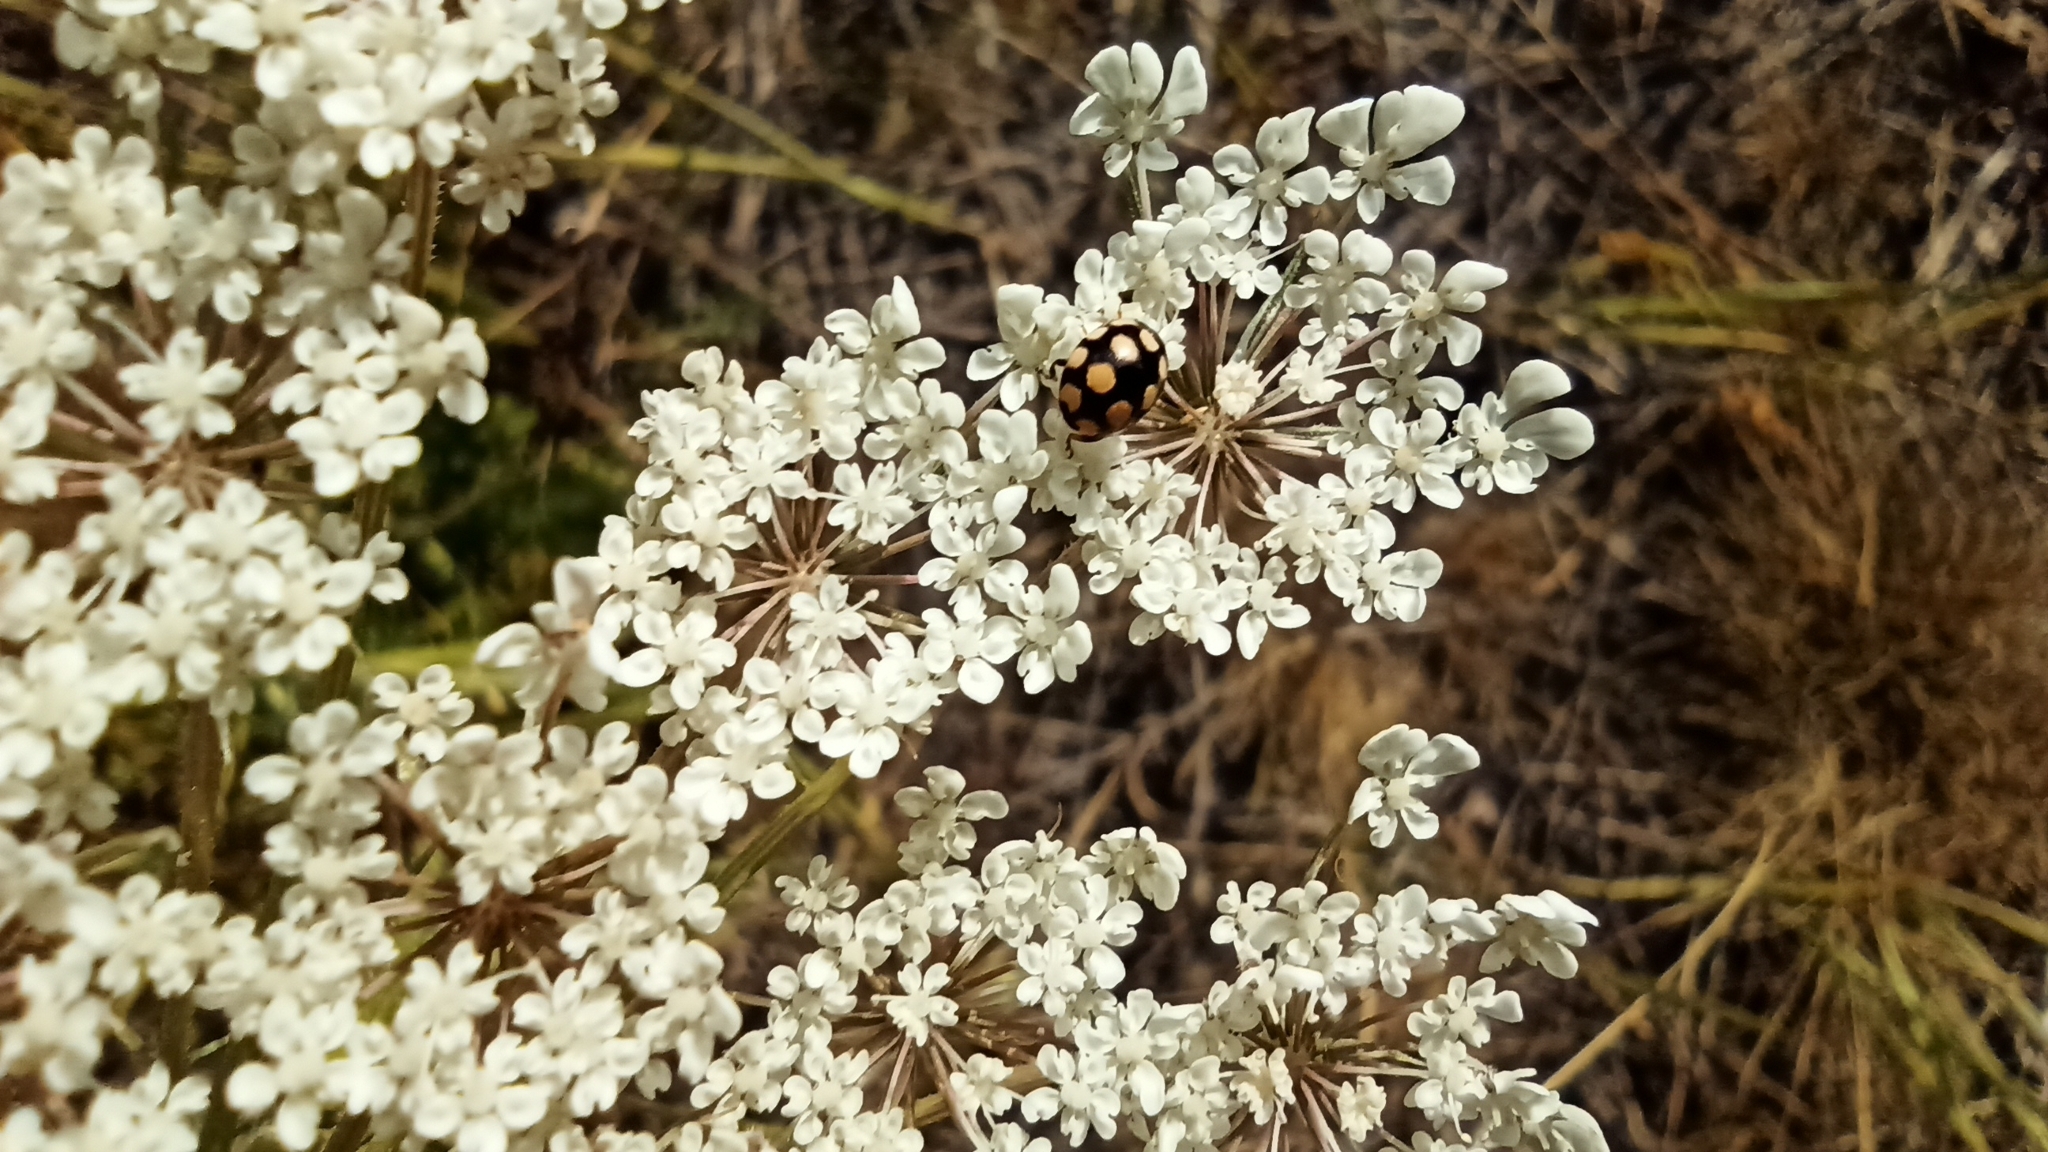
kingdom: Animalia
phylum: Arthropoda
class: Insecta
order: Coleoptera
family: Coccinellidae
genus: Coccinula
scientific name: Coccinula quatuordecimpustulata
